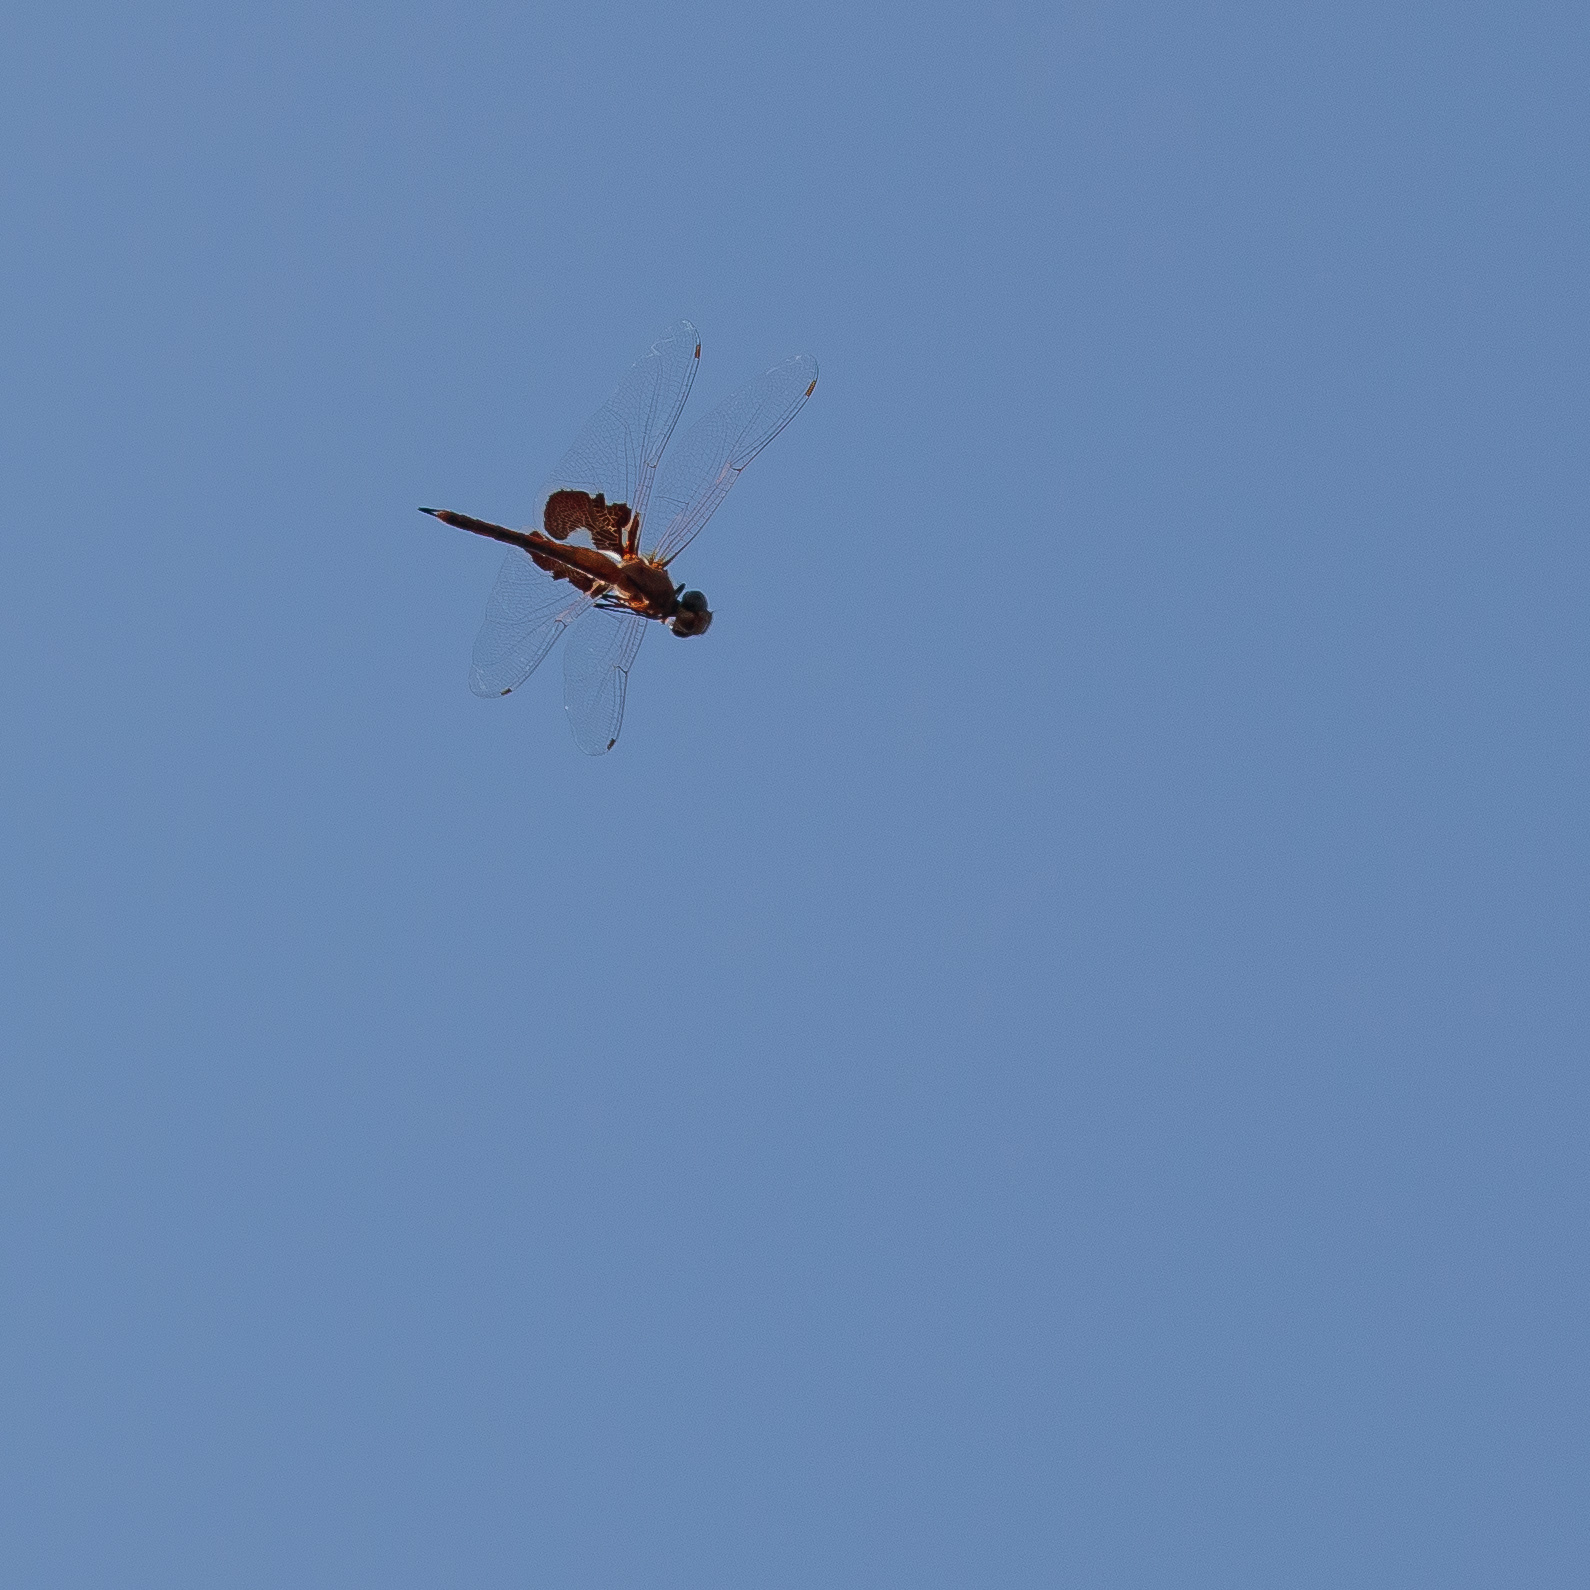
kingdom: Animalia
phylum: Arthropoda
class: Insecta
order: Odonata
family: Libellulidae
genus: Tramea
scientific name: Tramea onusta
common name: Red saddlebags
